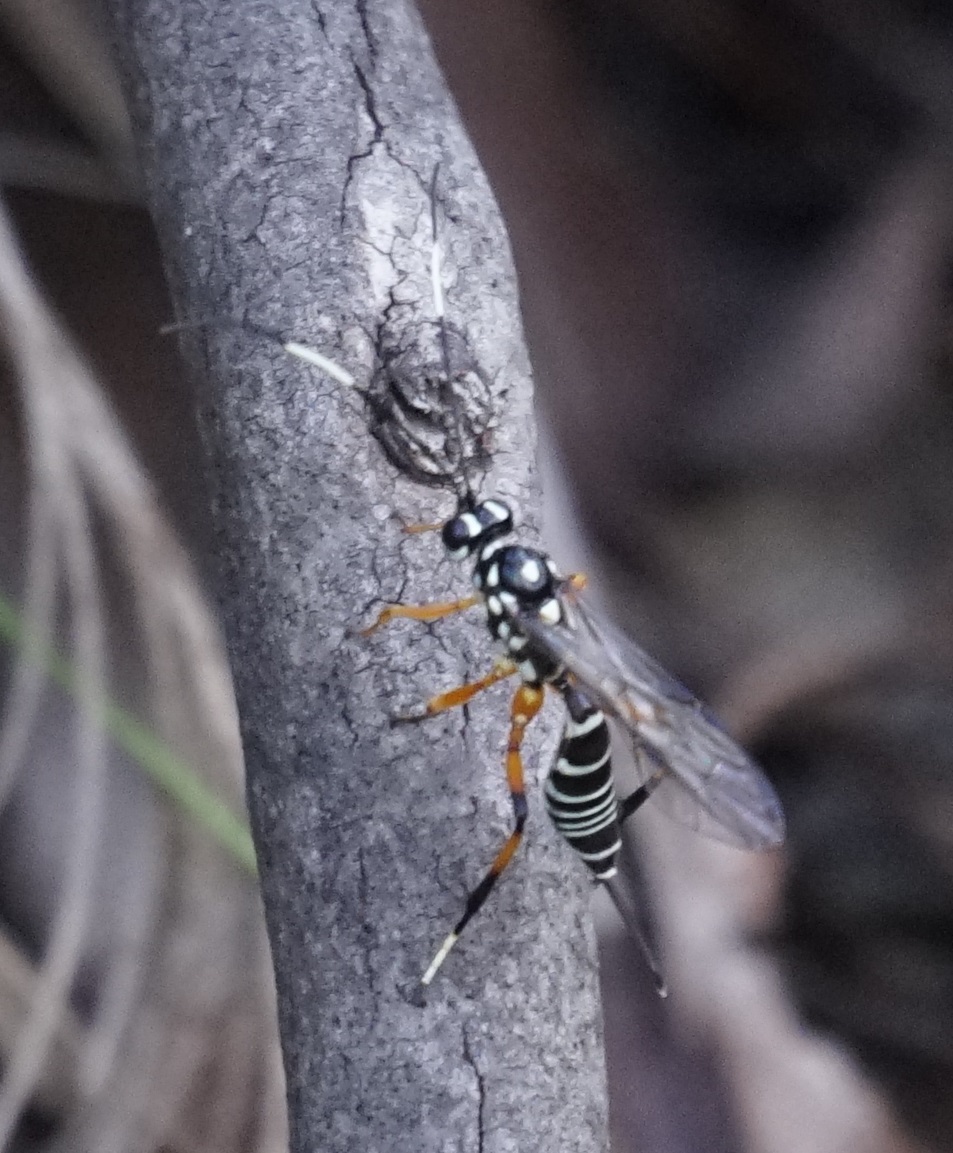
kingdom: Animalia
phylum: Arthropoda
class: Insecta
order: Hymenoptera
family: Ichneumonidae
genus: Xanthocryptus
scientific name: Xanthocryptus novozealandicus
